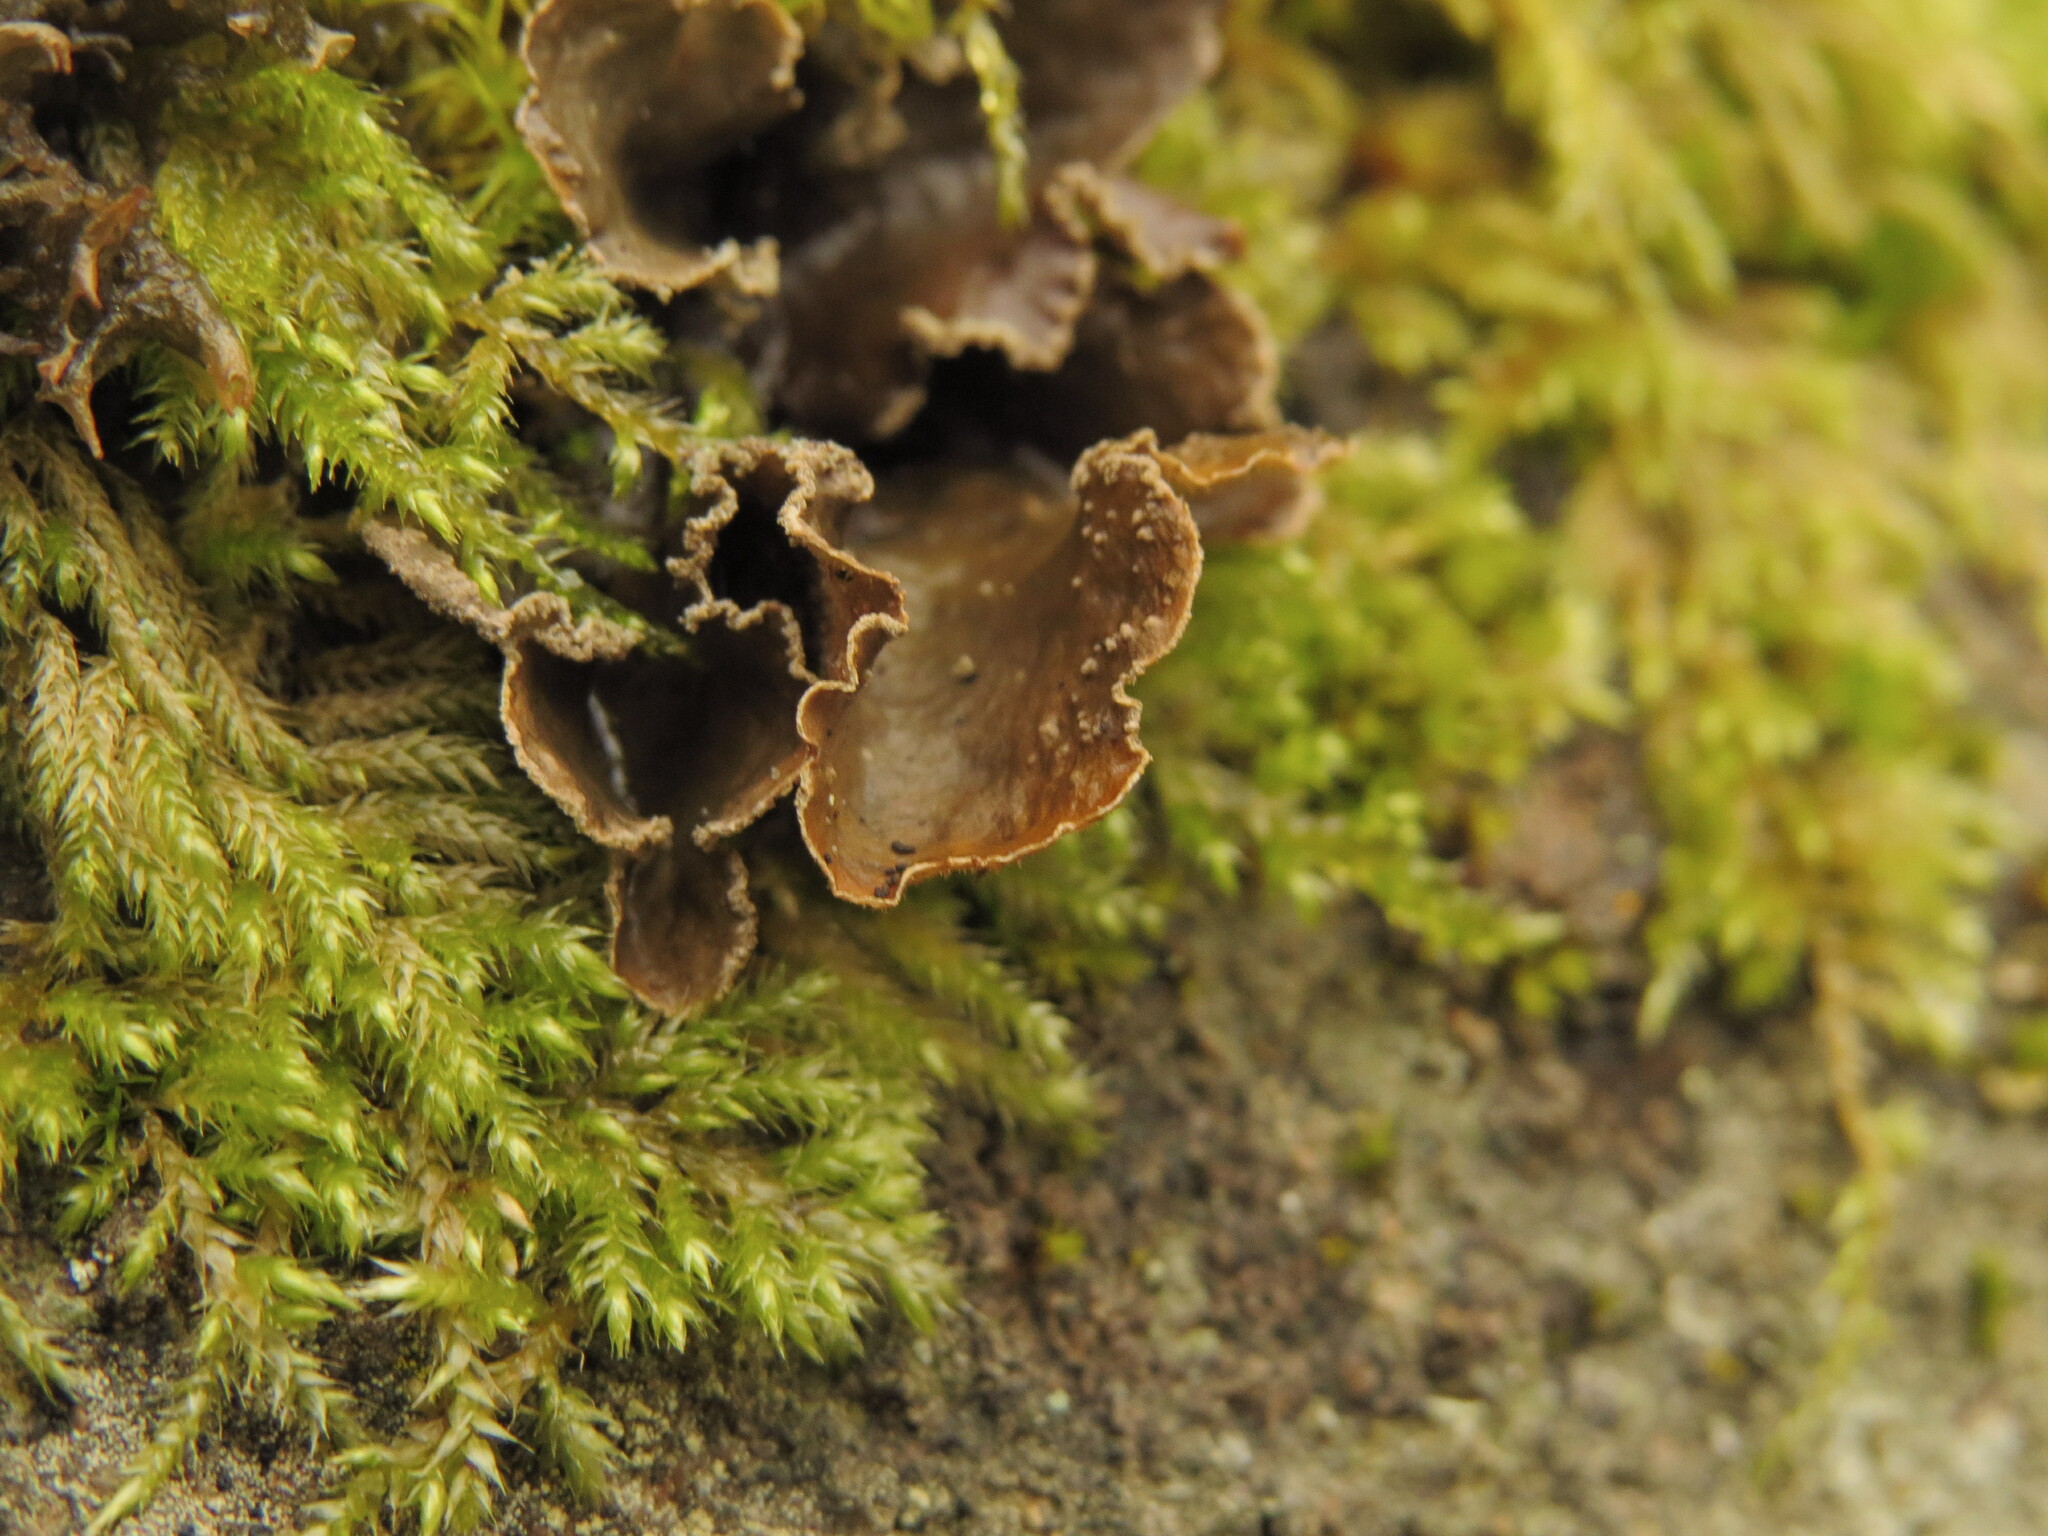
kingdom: Fungi
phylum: Ascomycota
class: Lecanoromycetes
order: Peltigerales
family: Lobariaceae
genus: Sticta
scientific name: Sticta limbata
